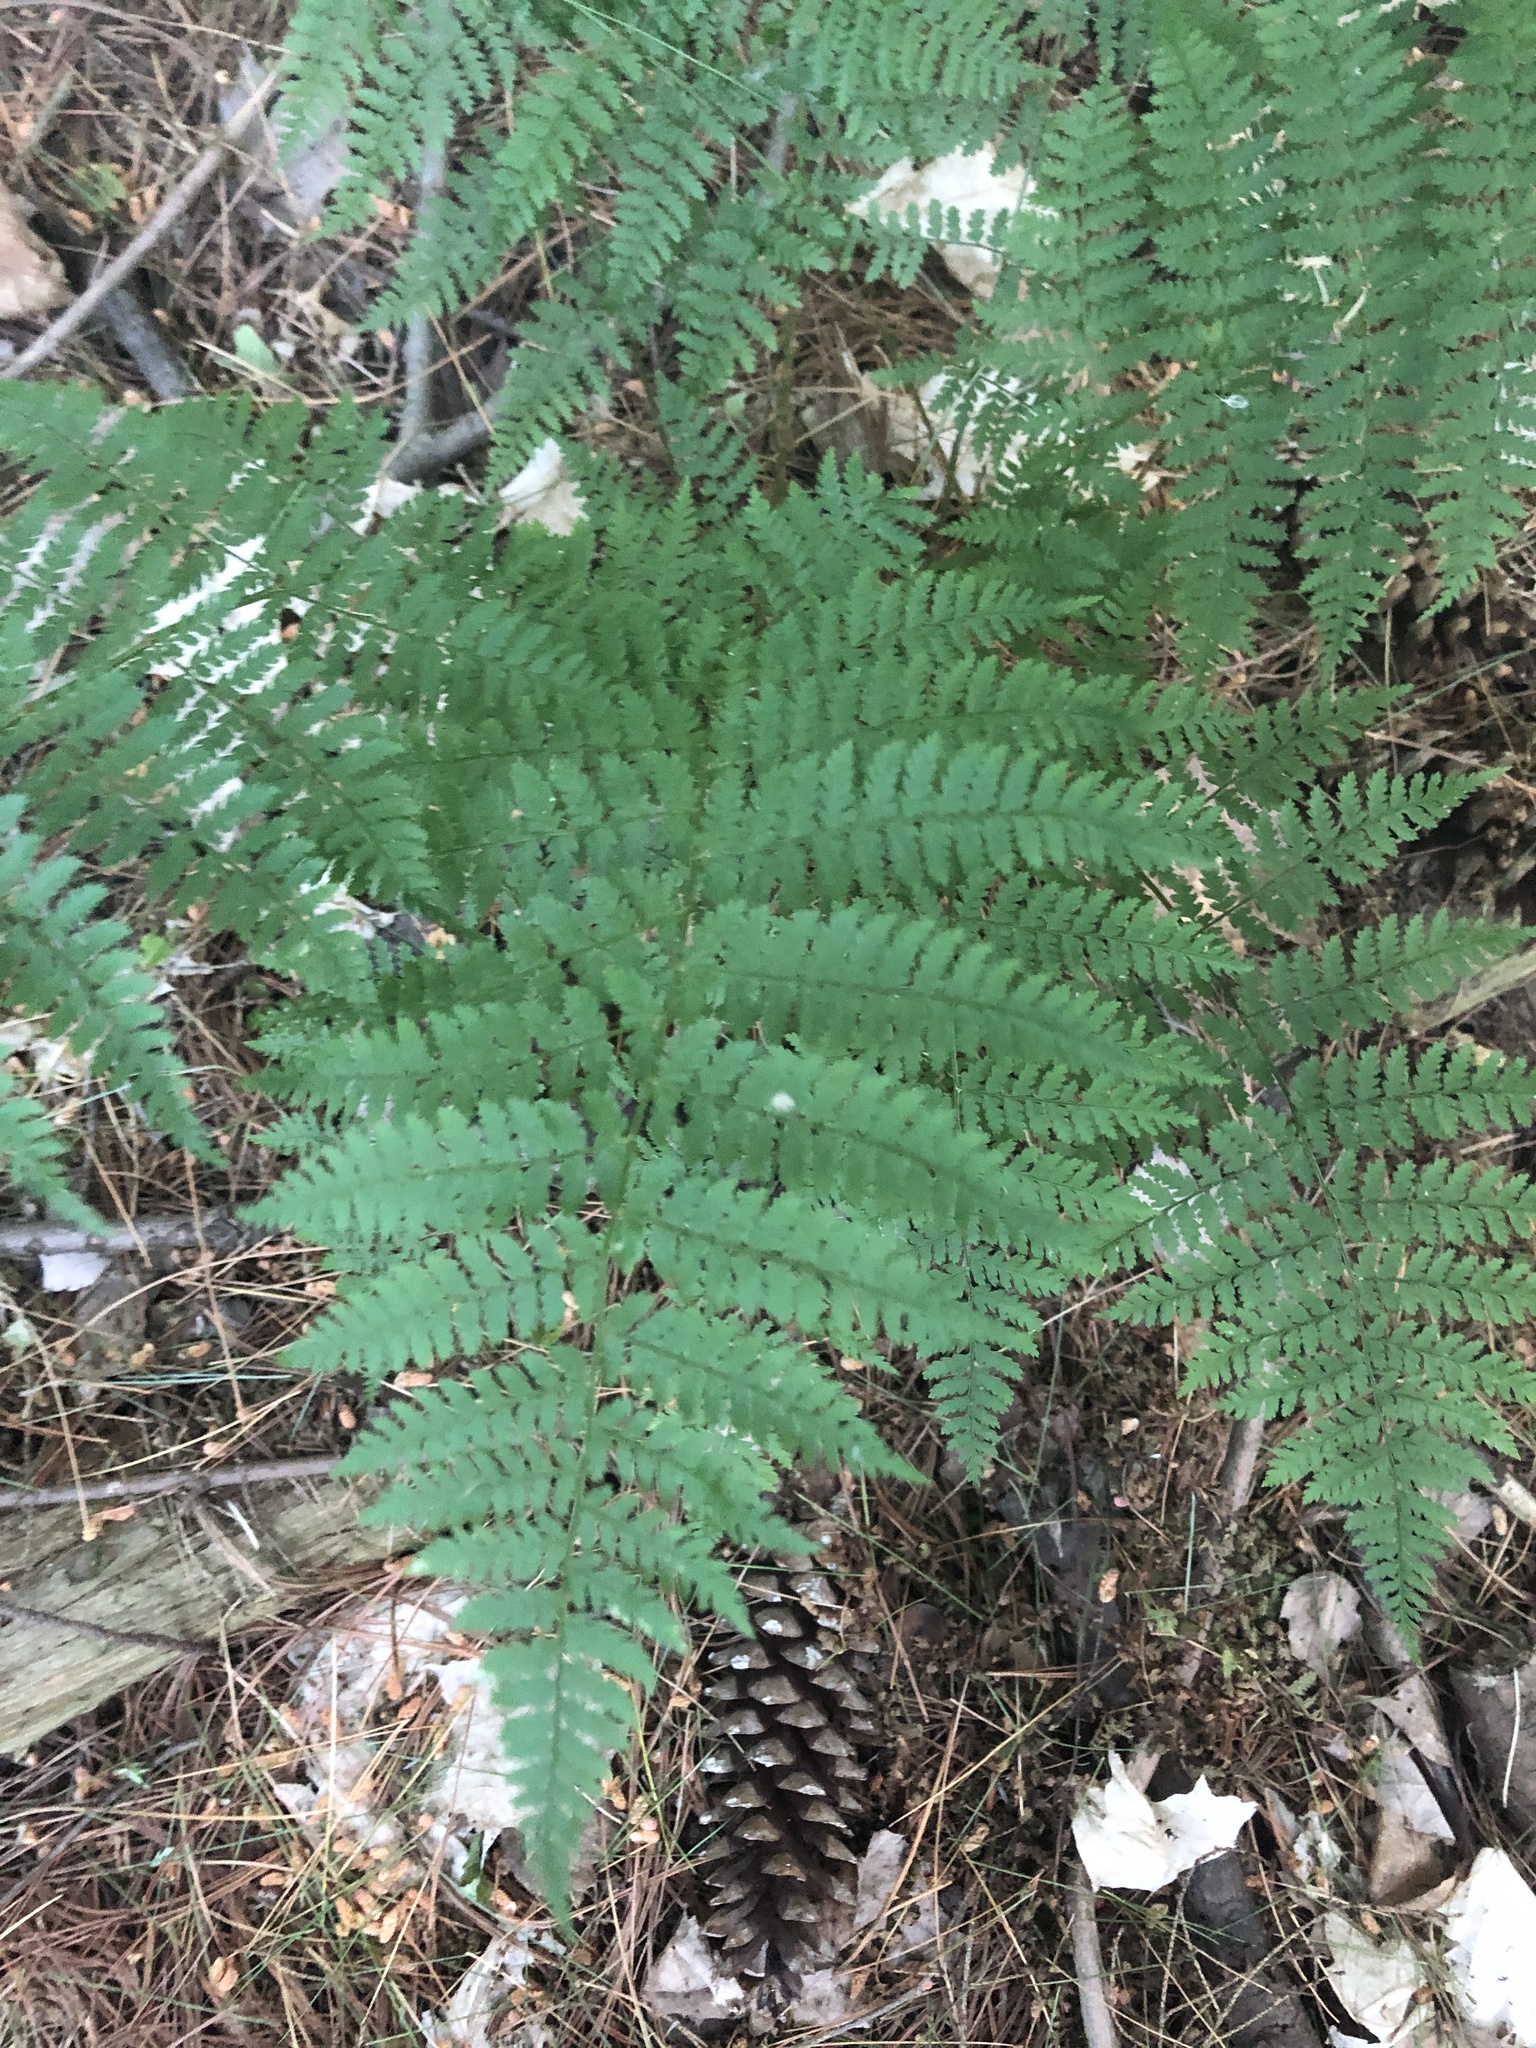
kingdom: Plantae
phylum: Tracheophyta
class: Polypodiopsida
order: Polypodiales
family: Dryopteridaceae
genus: Dryopteris
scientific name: Dryopteris intermedia
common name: Evergreen wood fern
